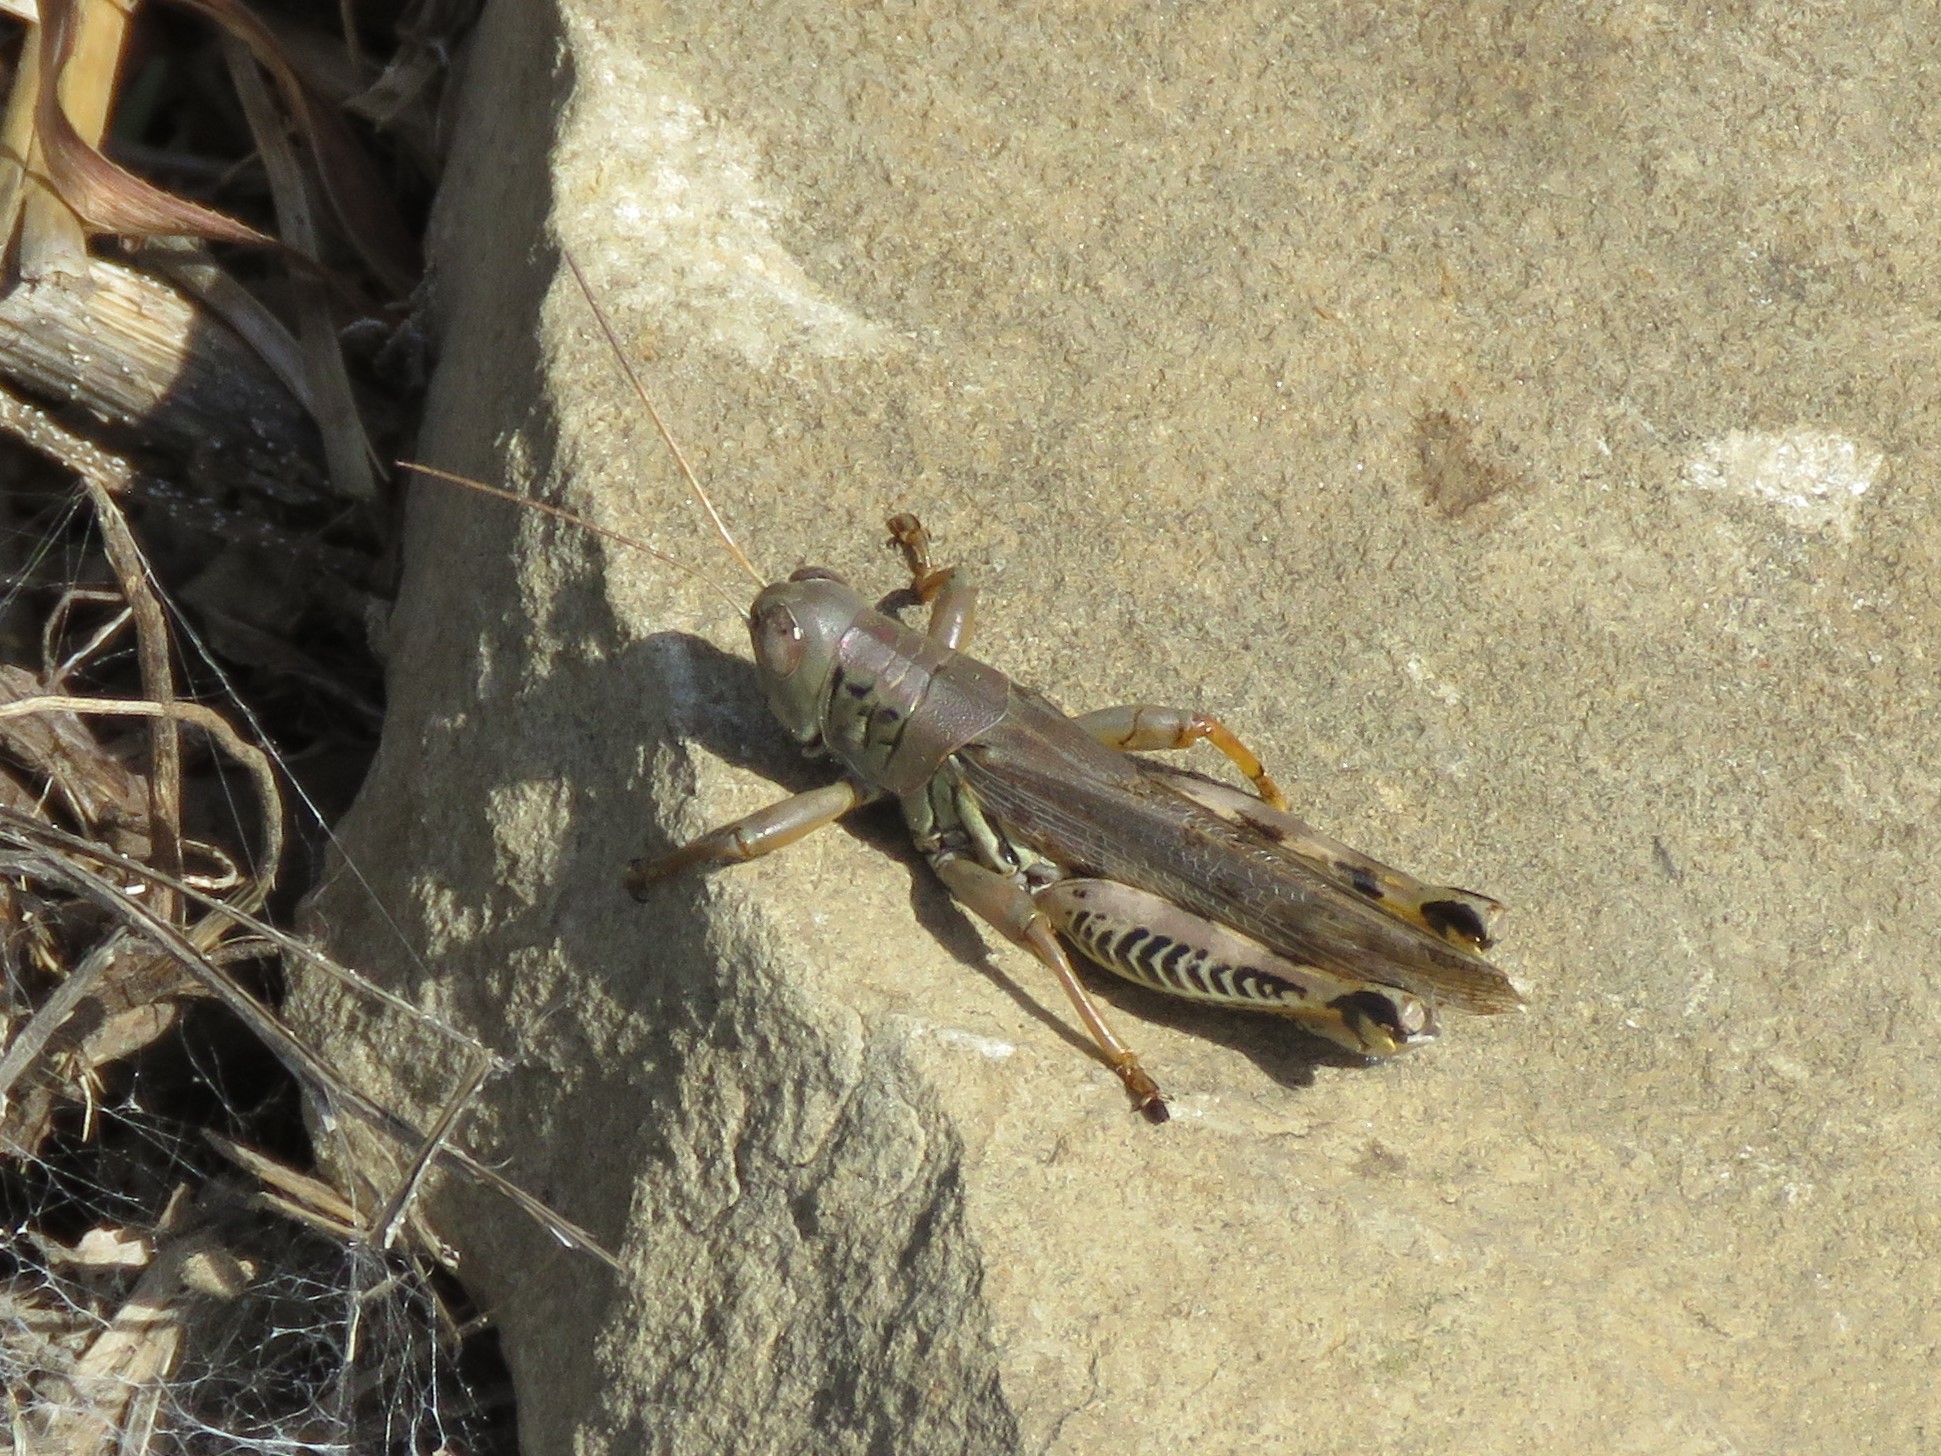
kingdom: Animalia
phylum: Arthropoda
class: Insecta
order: Orthoptera
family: Acrididae
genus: Melanoplus
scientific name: Melanoplus differentialis
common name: Differential grasshopper
